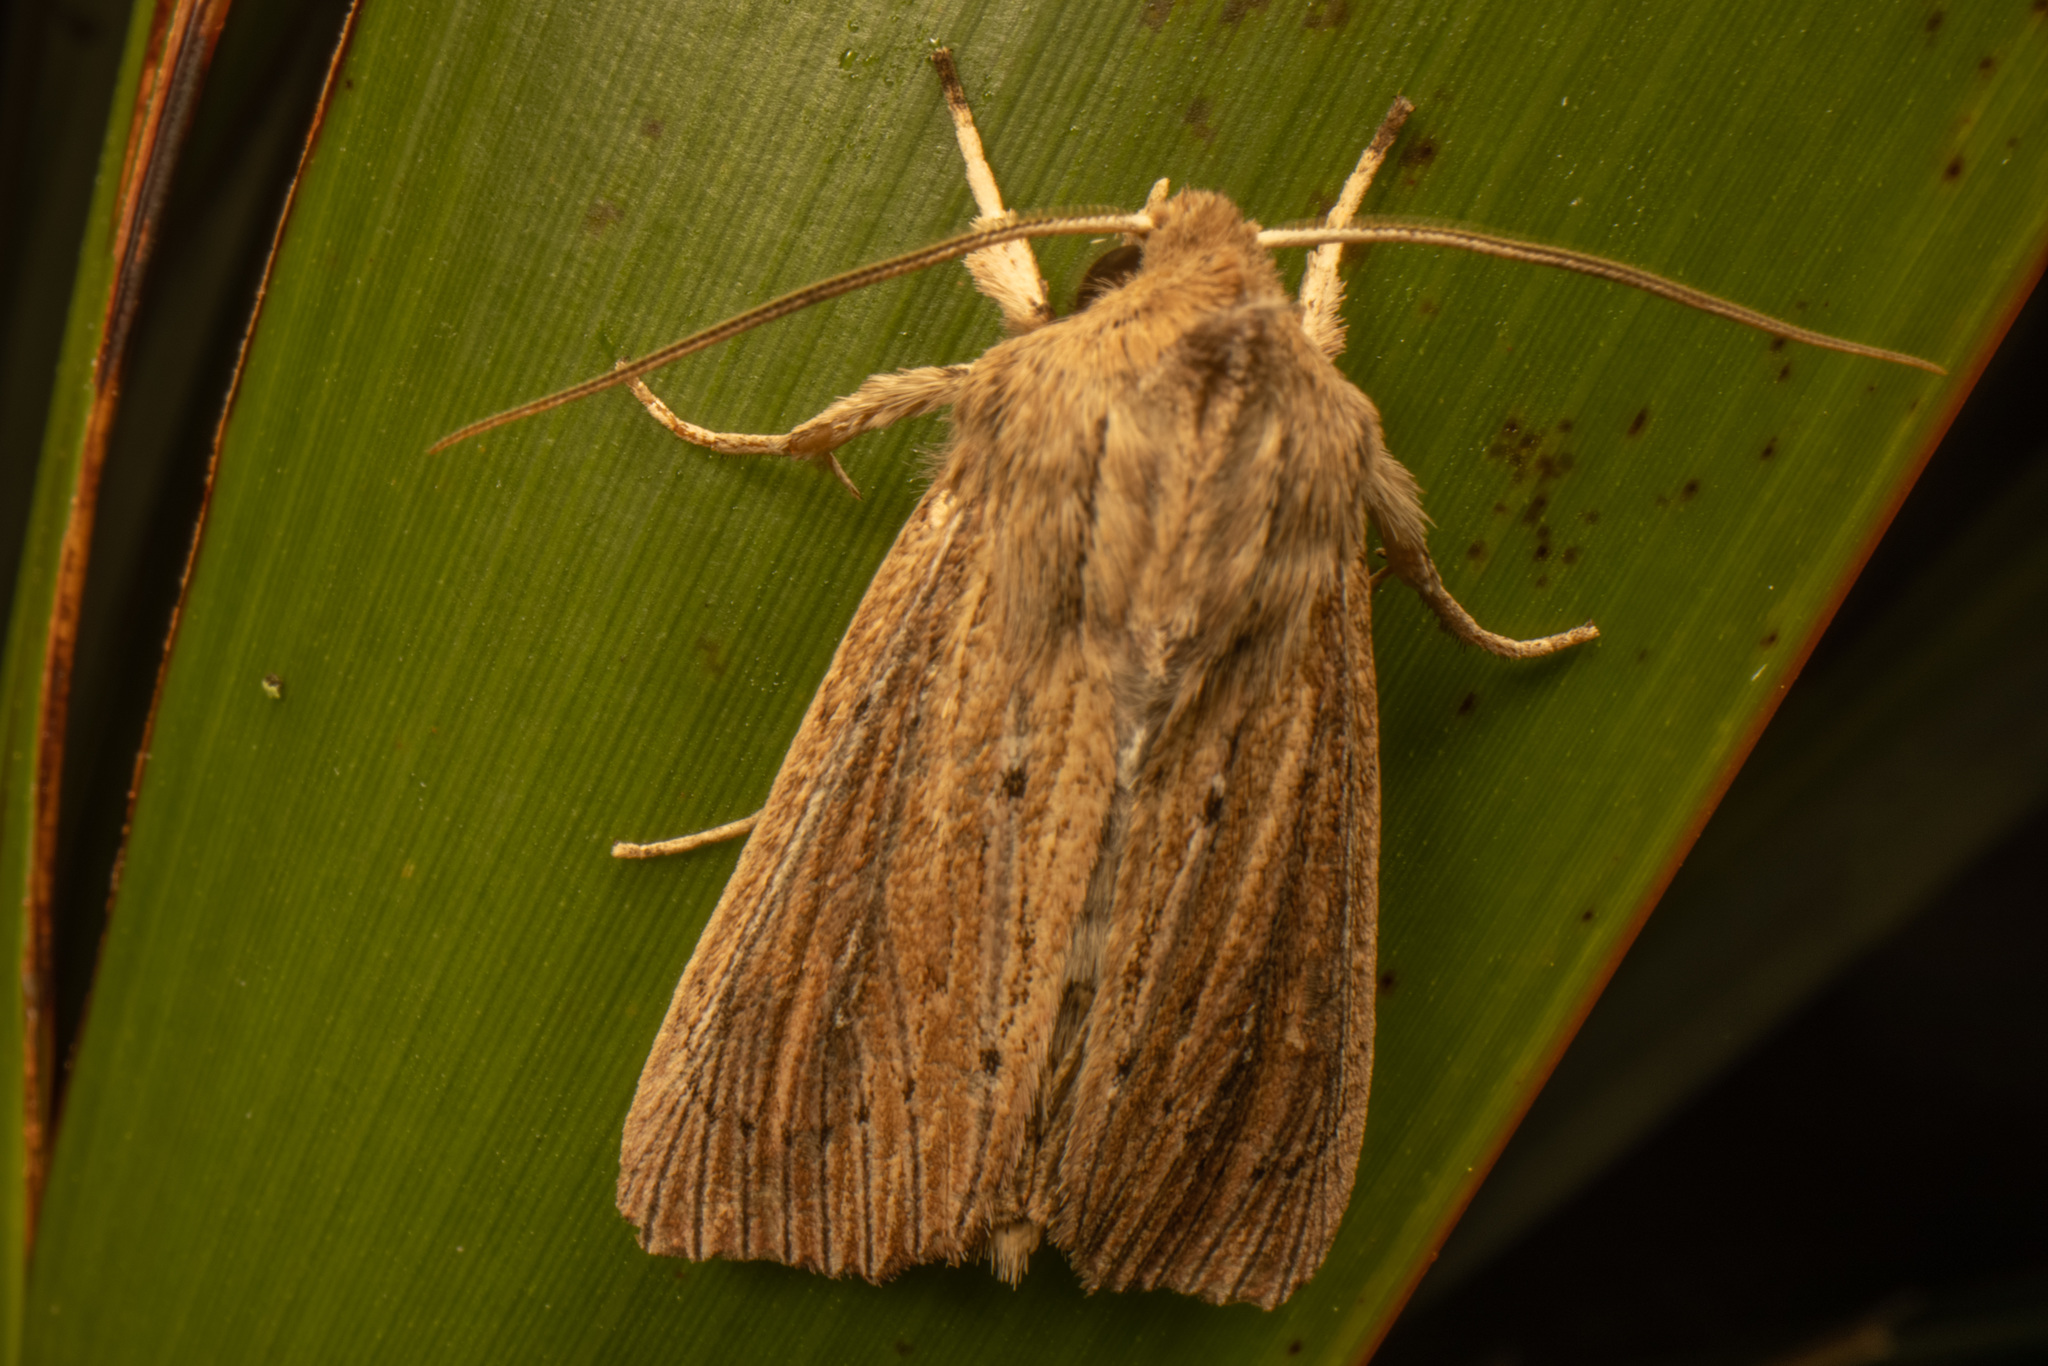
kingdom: Animalia
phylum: Arthropoda
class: Insecta
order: Lepidoptera
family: Noctuidae
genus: Ichneutica
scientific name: Ichneutica arotis
